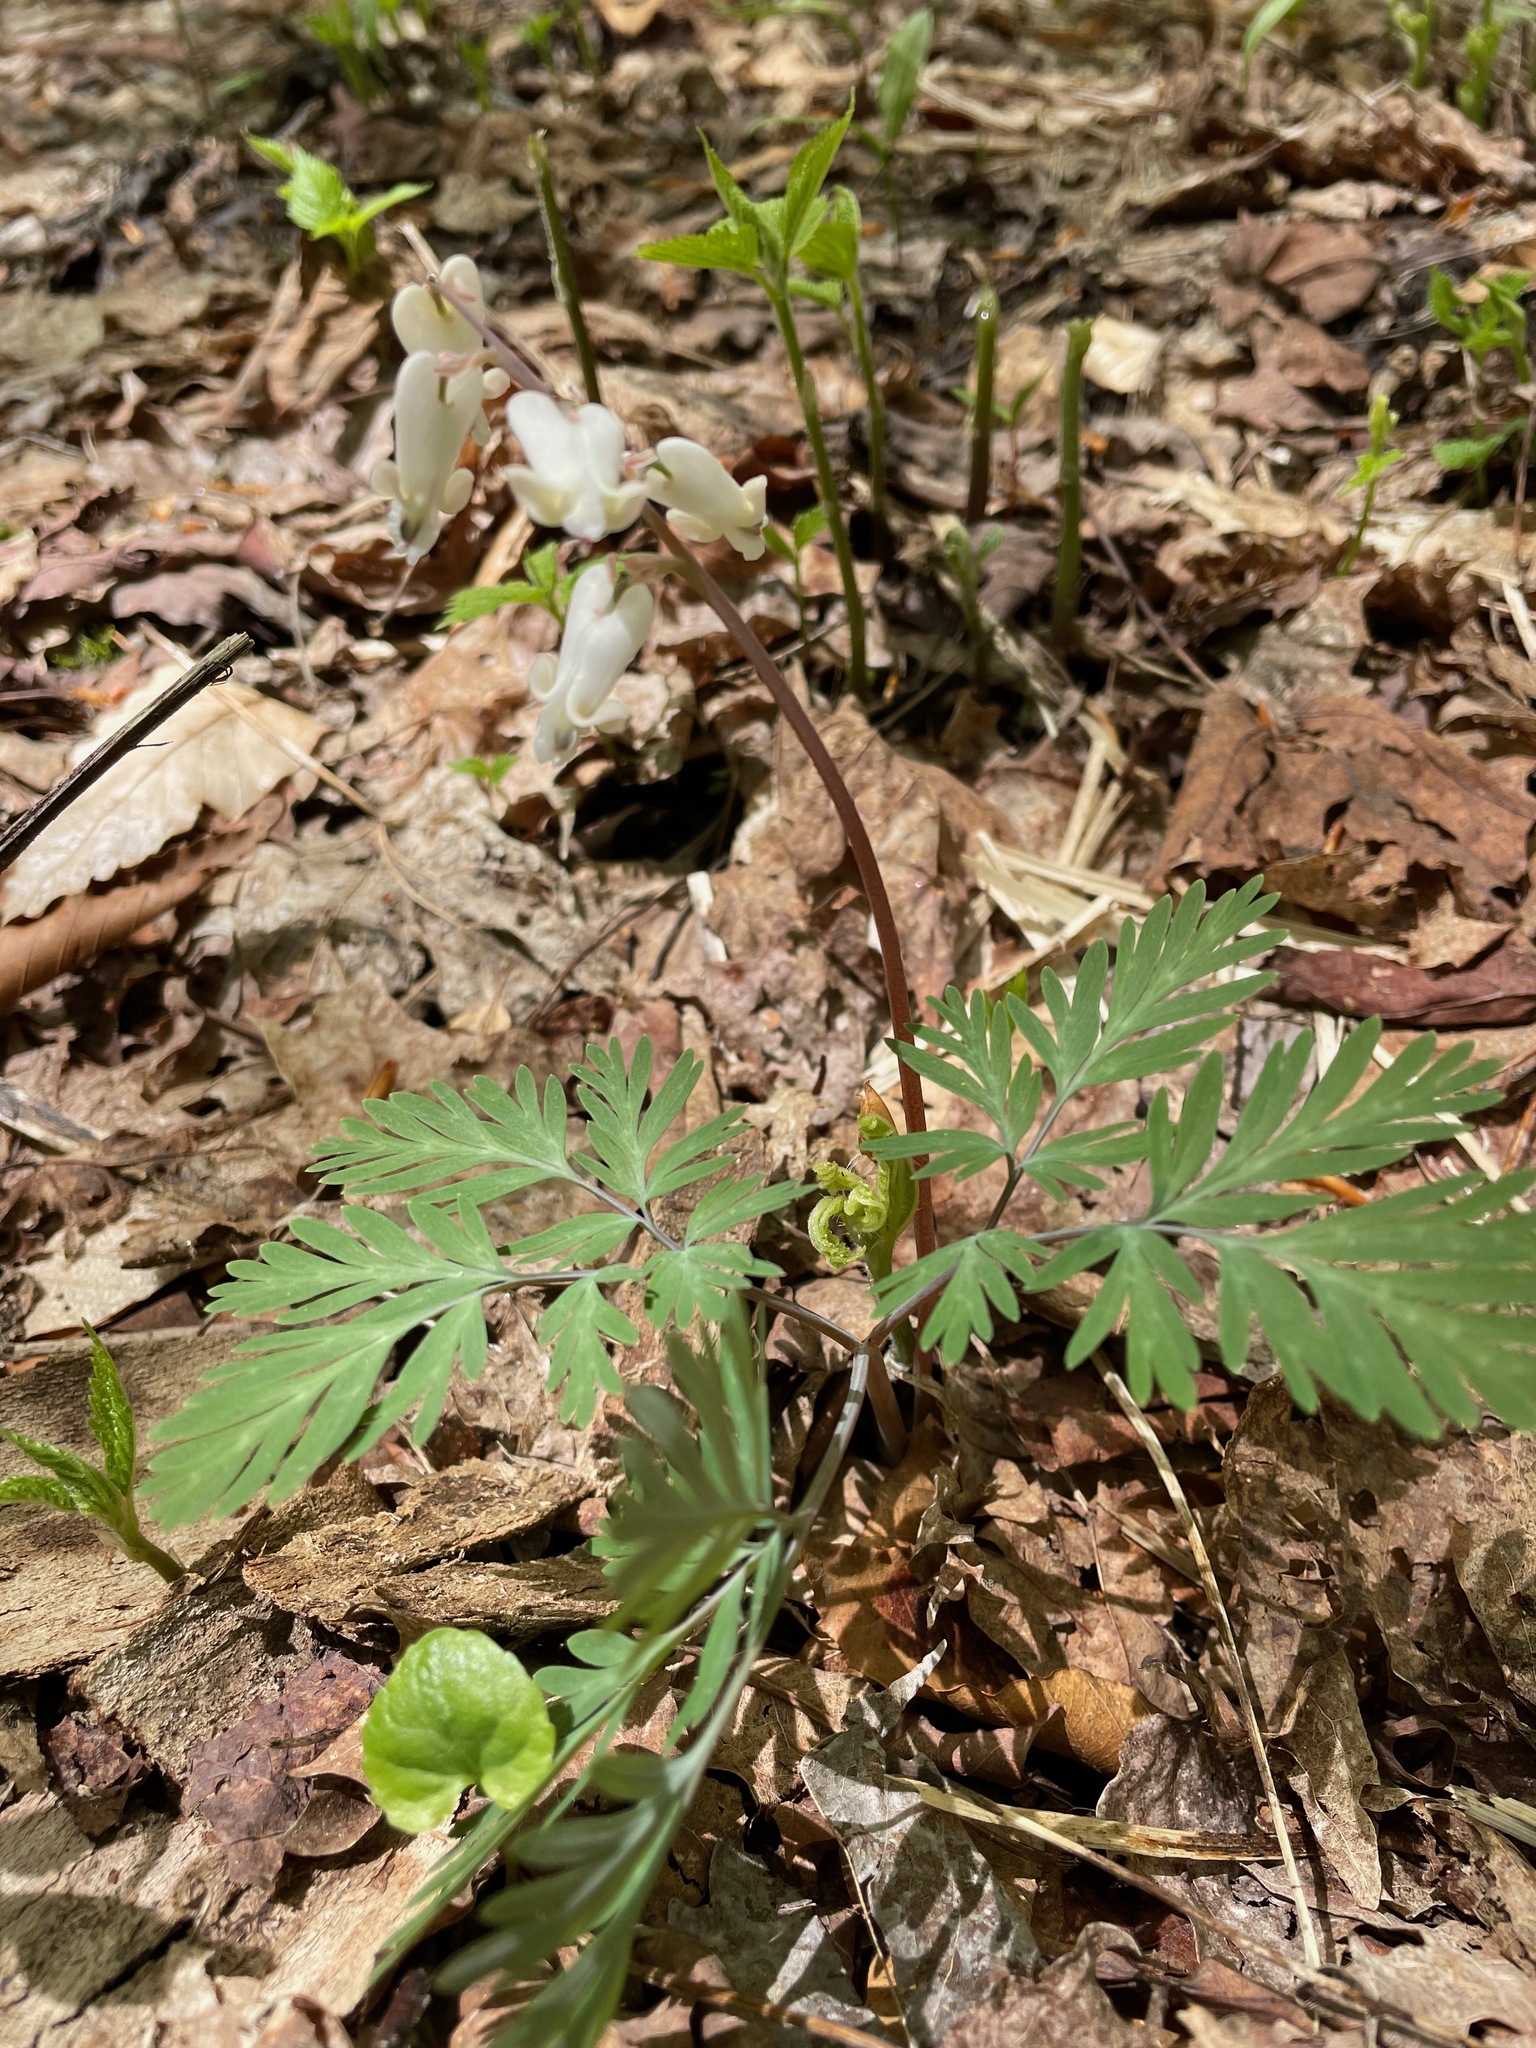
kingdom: Plantae
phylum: Tracheophyta
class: Magnoliopsida
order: Ranunculales
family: Papaveraceae
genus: Dicentra
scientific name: Dicentra canadensis
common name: Squirrel-corn
